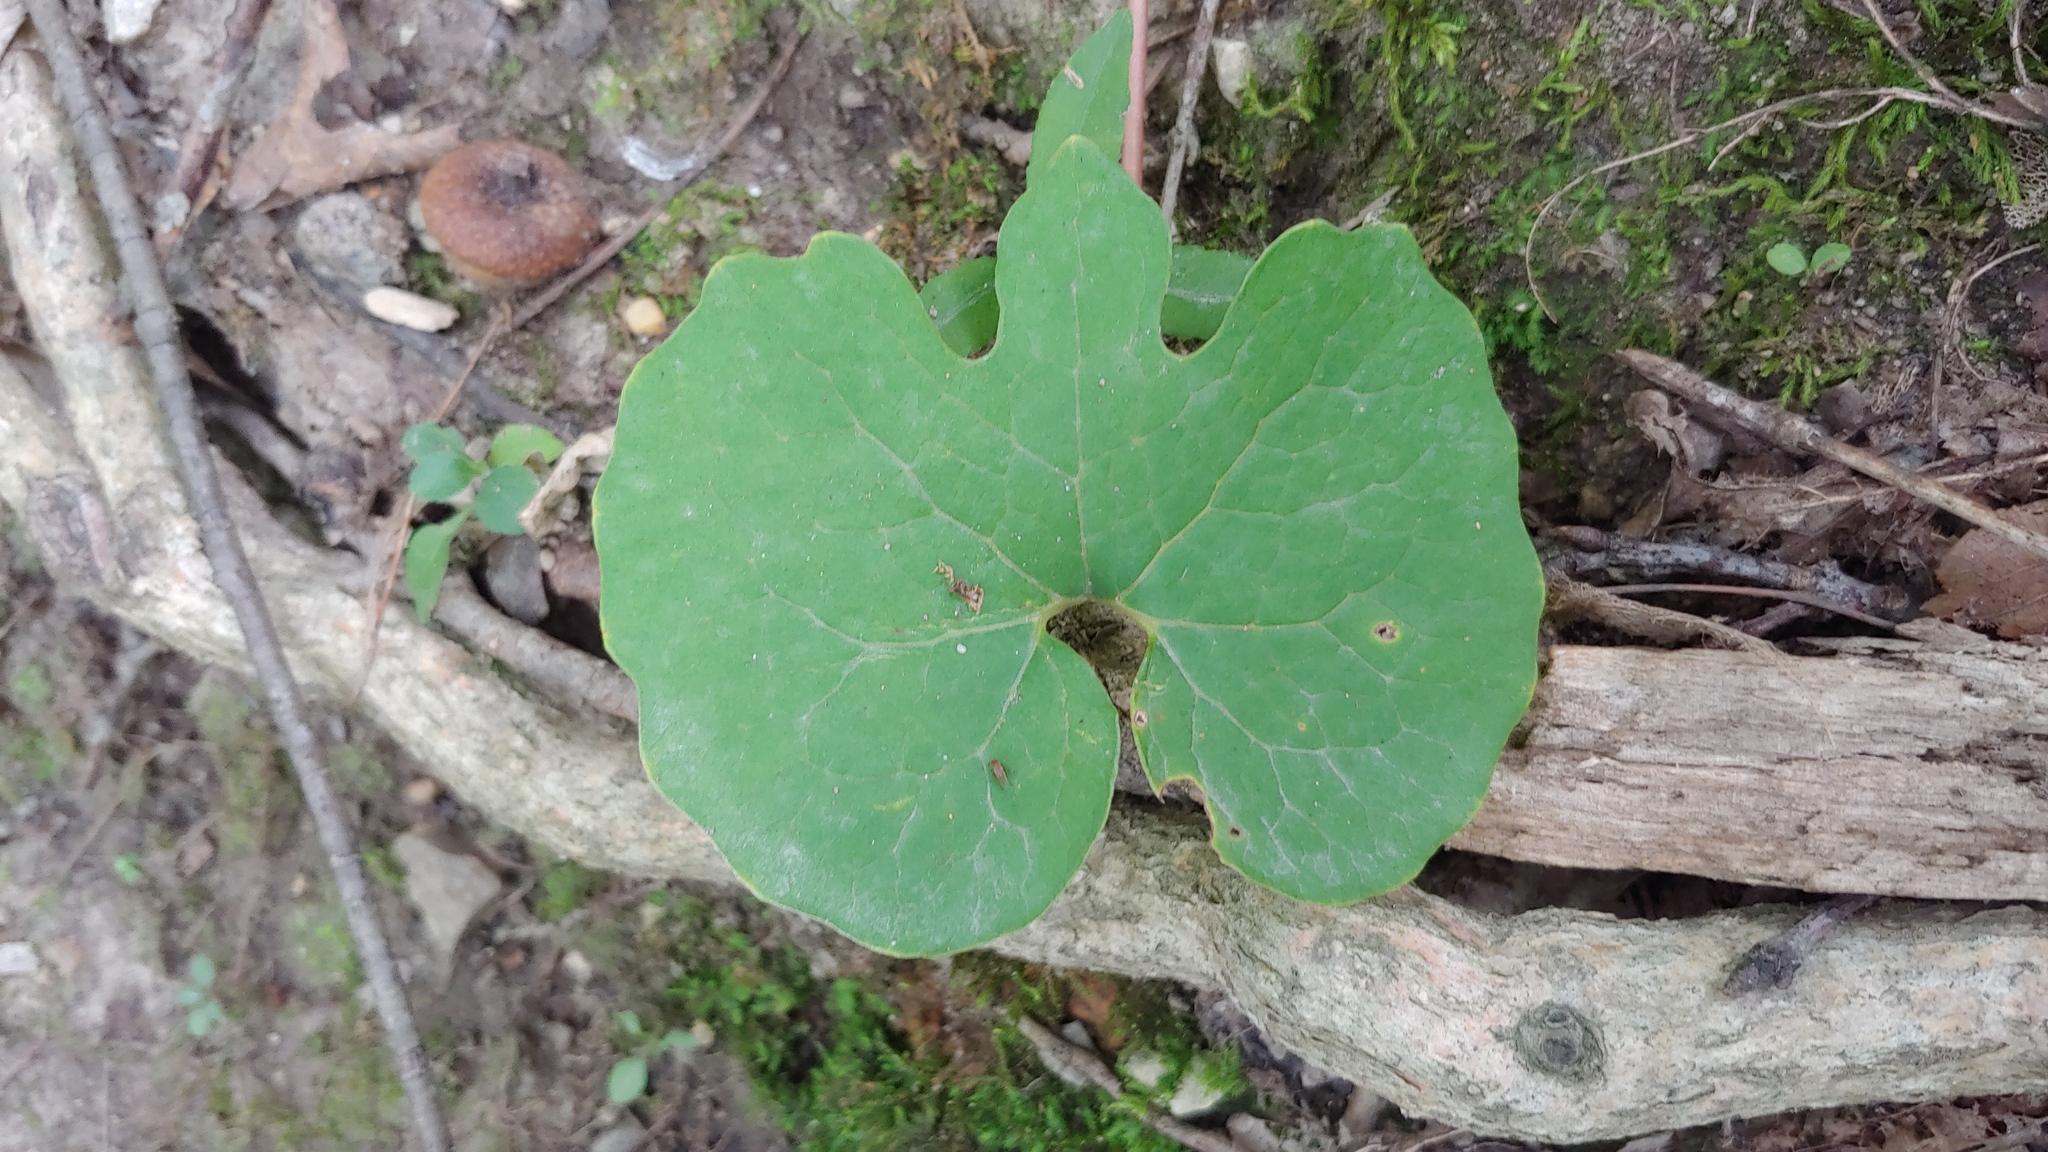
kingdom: Plantae
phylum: Tracheophyta
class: Magnoliopsida
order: Ranunculales
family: Papaveraceae
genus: Sanguinaria
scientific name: Sanguinaria canadensis
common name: Bloodroot
